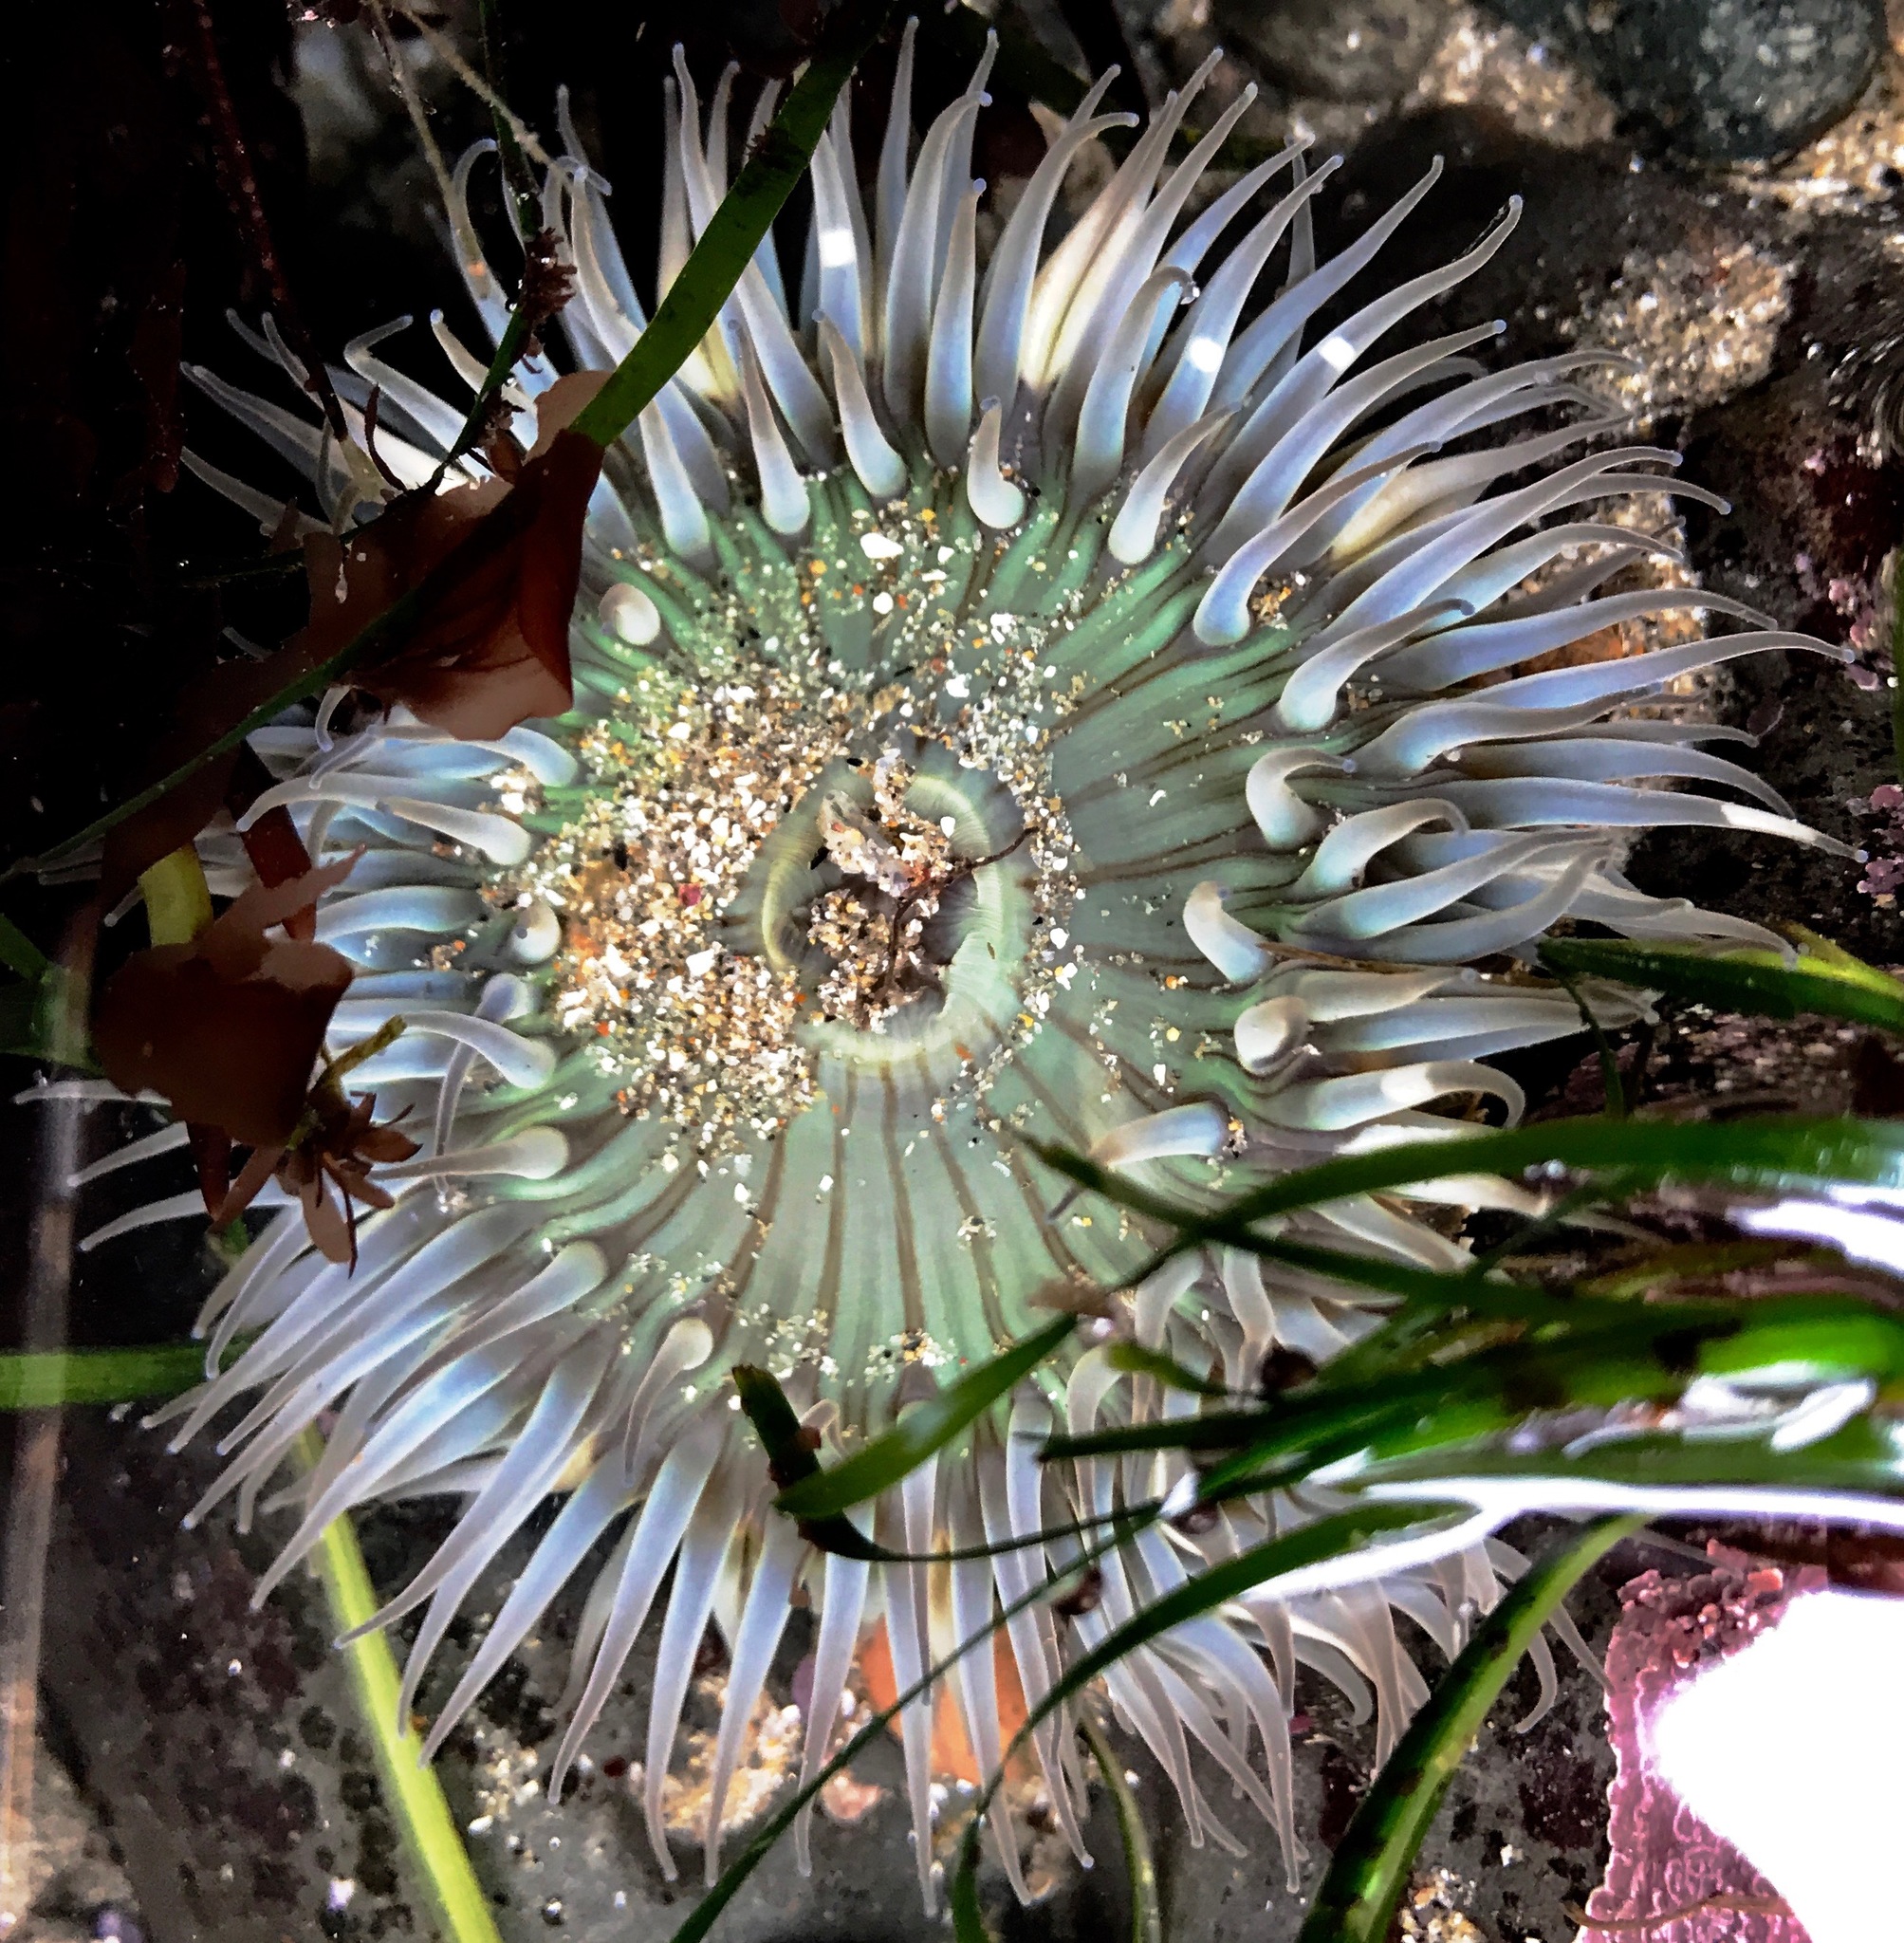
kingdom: Animalia
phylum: Cnidaria
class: Anthozoa
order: Actiniaria
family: Actiniidae
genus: Anthopleura
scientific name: Anthopleura sola
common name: Sun anemone
